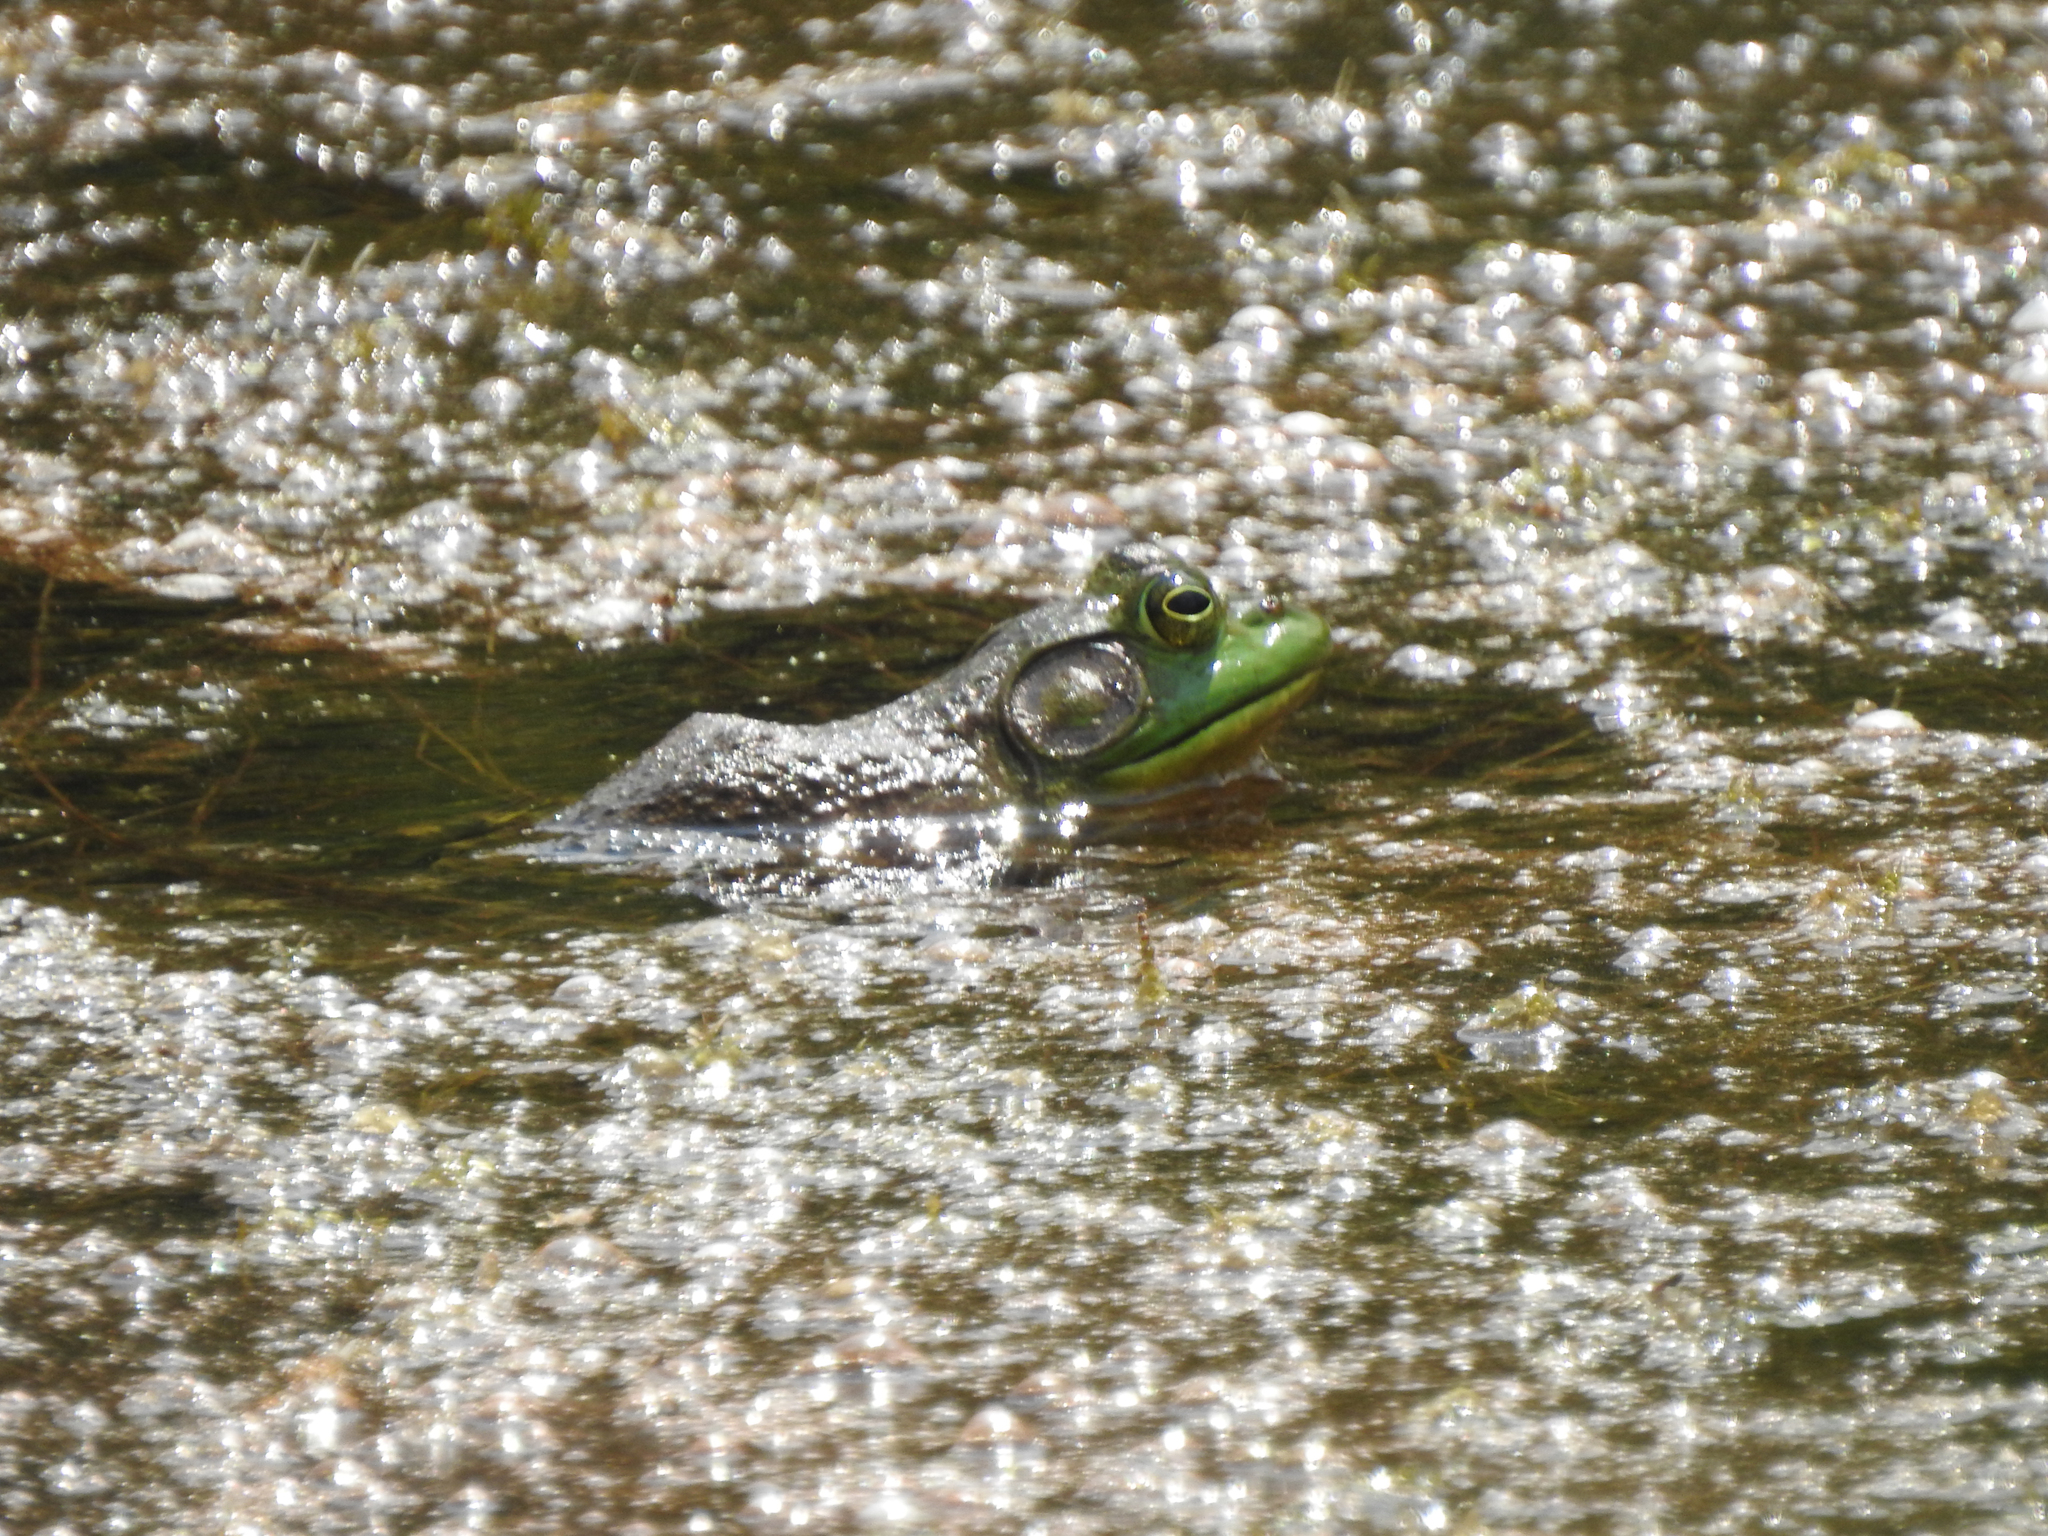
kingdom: Animalia
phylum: Chordata
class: Amphibia
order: Anura
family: Ranidae
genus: Lithobates
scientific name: Lithobates catesbeianus
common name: American bullfrog
